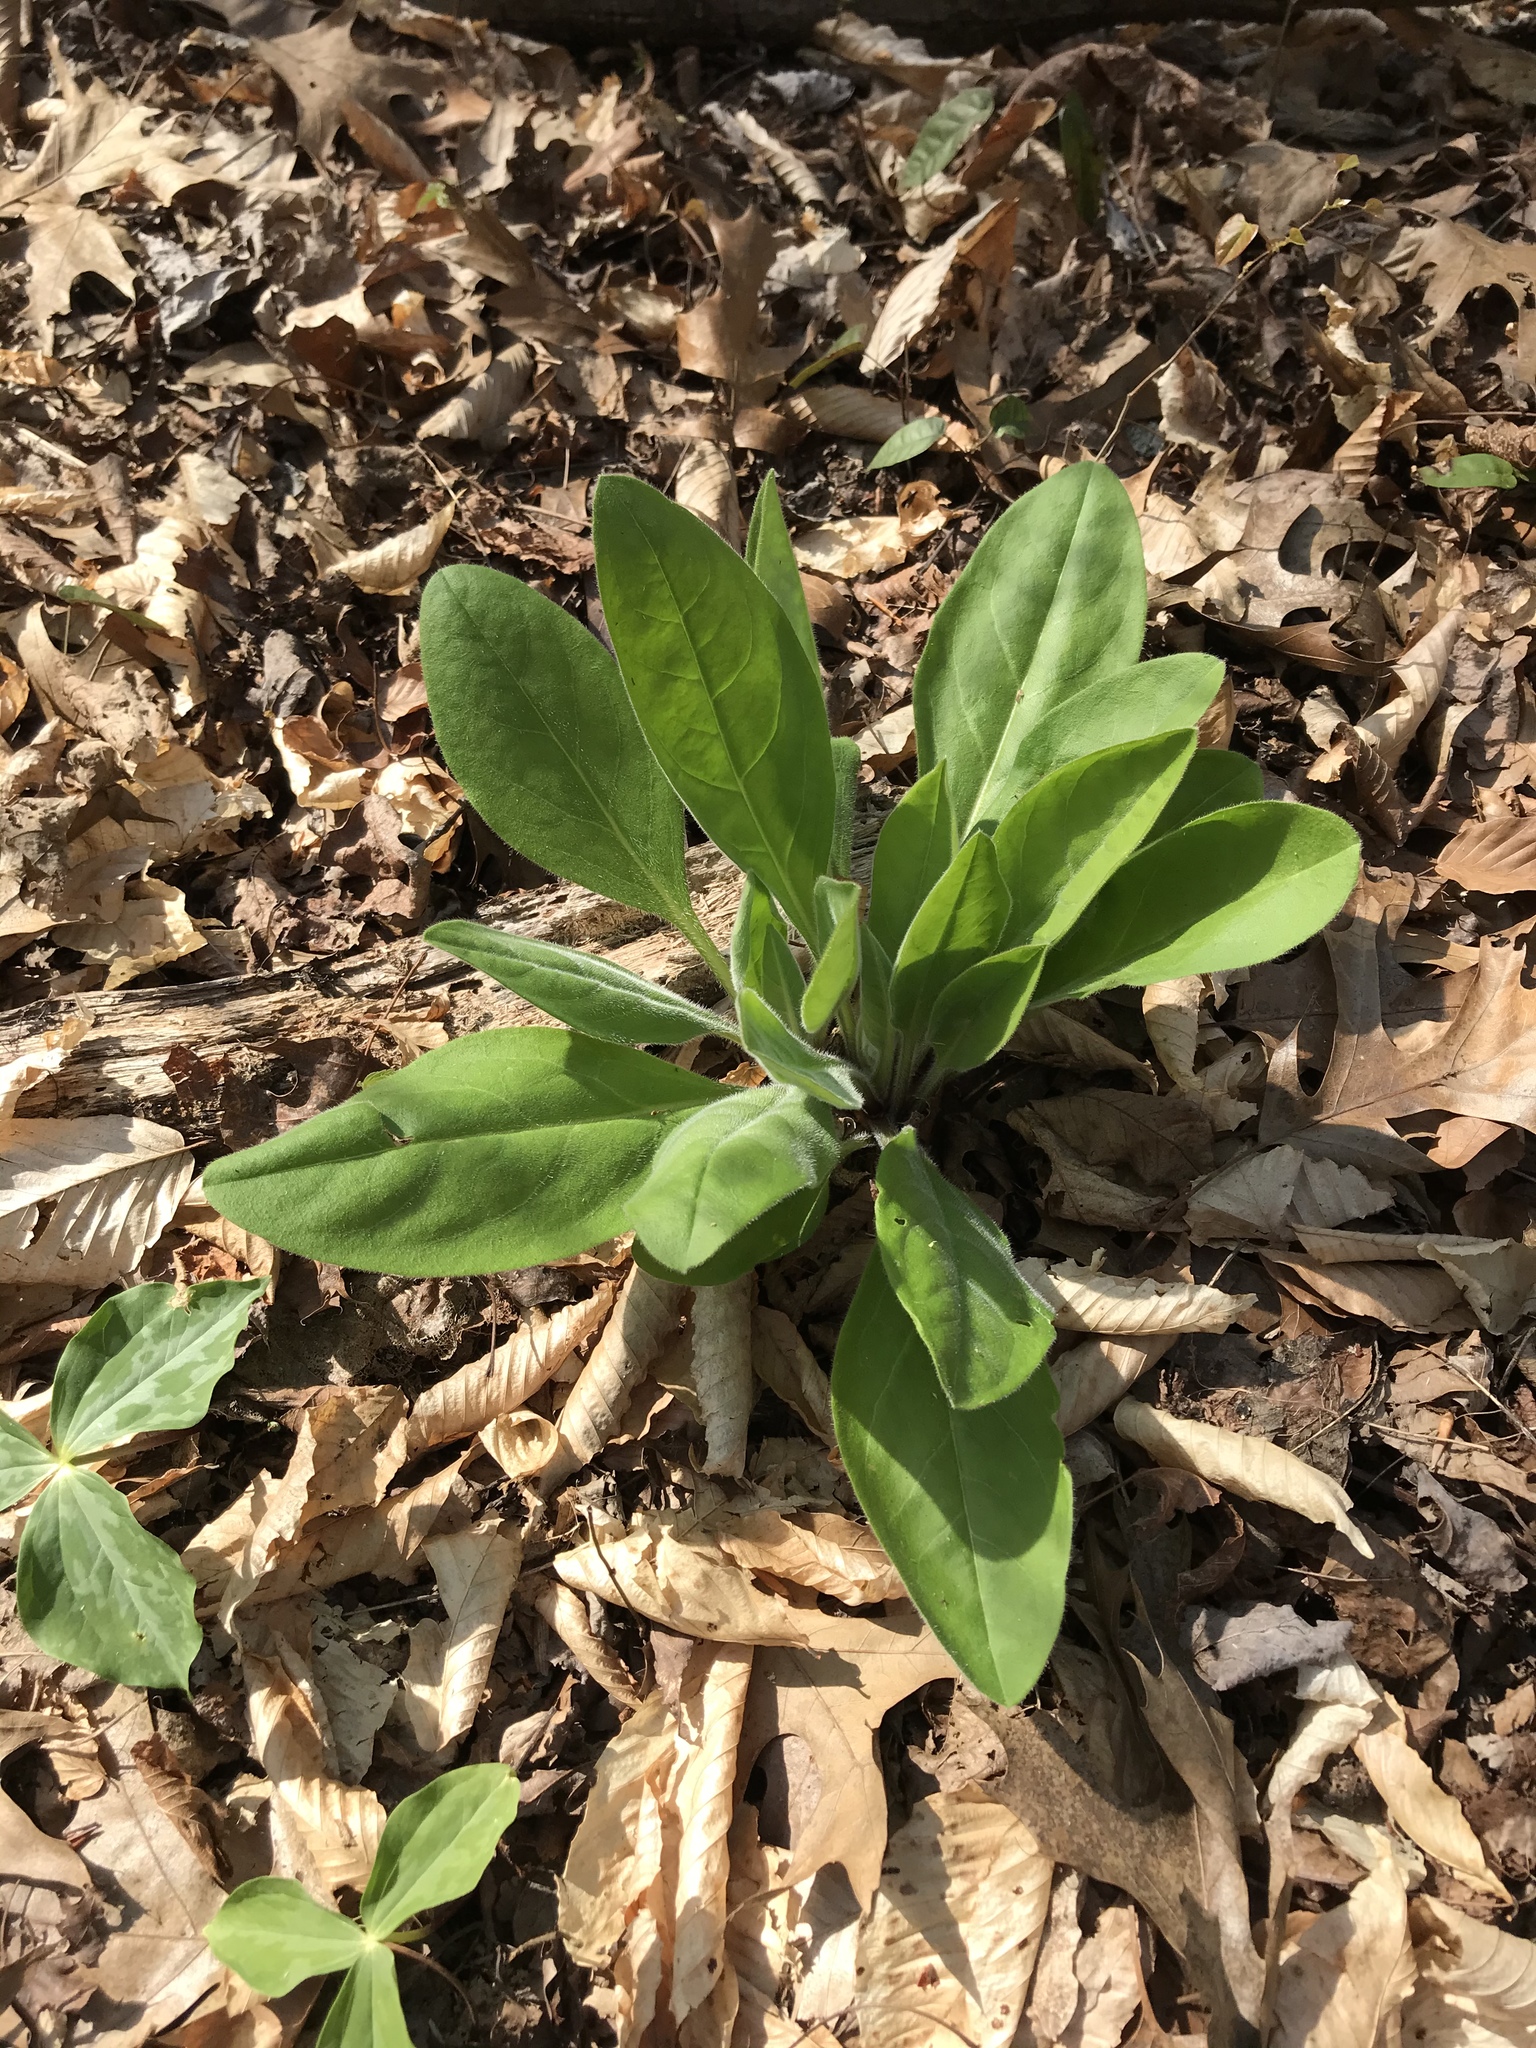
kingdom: Plantae
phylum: Tracheophyta
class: Magnoliopsida
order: Boraginales
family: Boraginaceae
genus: Andersonglossum
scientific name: Andersonglossum virginianum
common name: Wild comfrey
